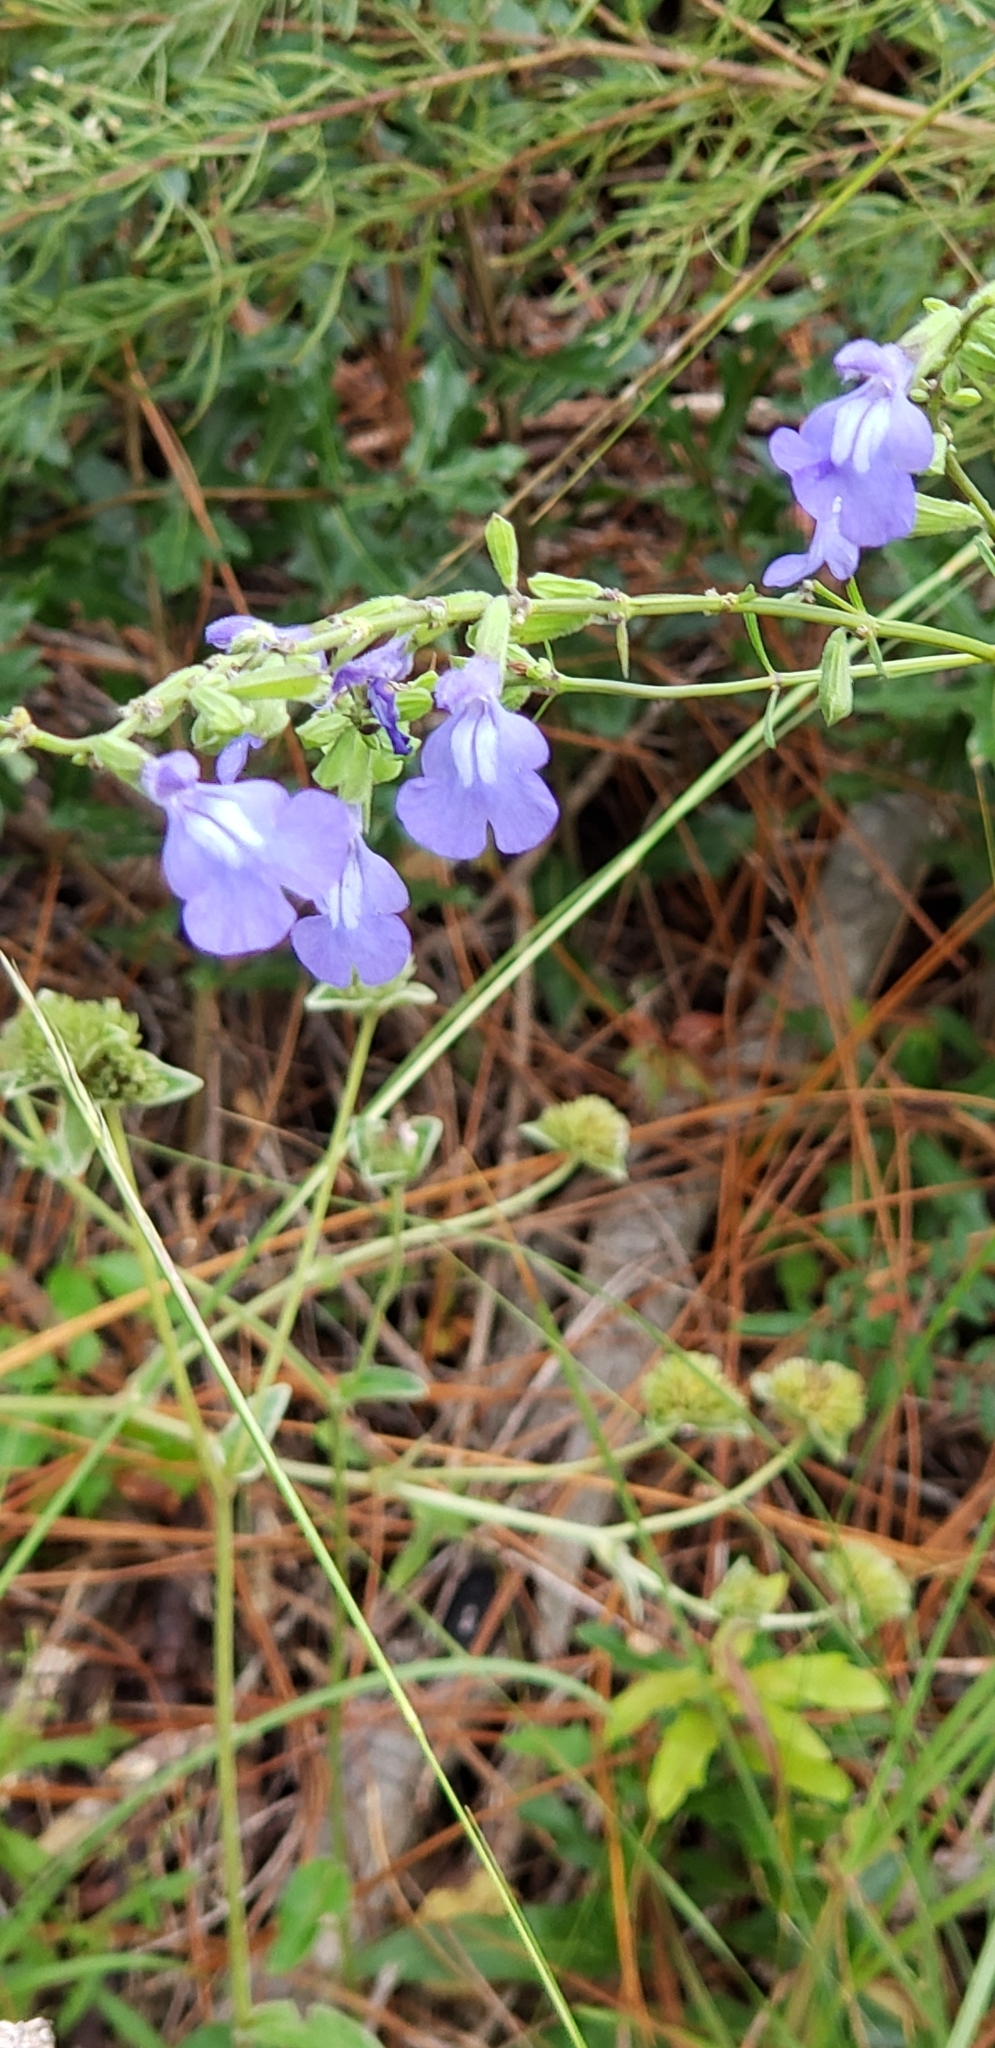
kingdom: Plantae
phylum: Tracheophyta
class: Magnoliopsida
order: Lamiales
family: Lamiaceae
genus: Salvia
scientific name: Salvia azurea
